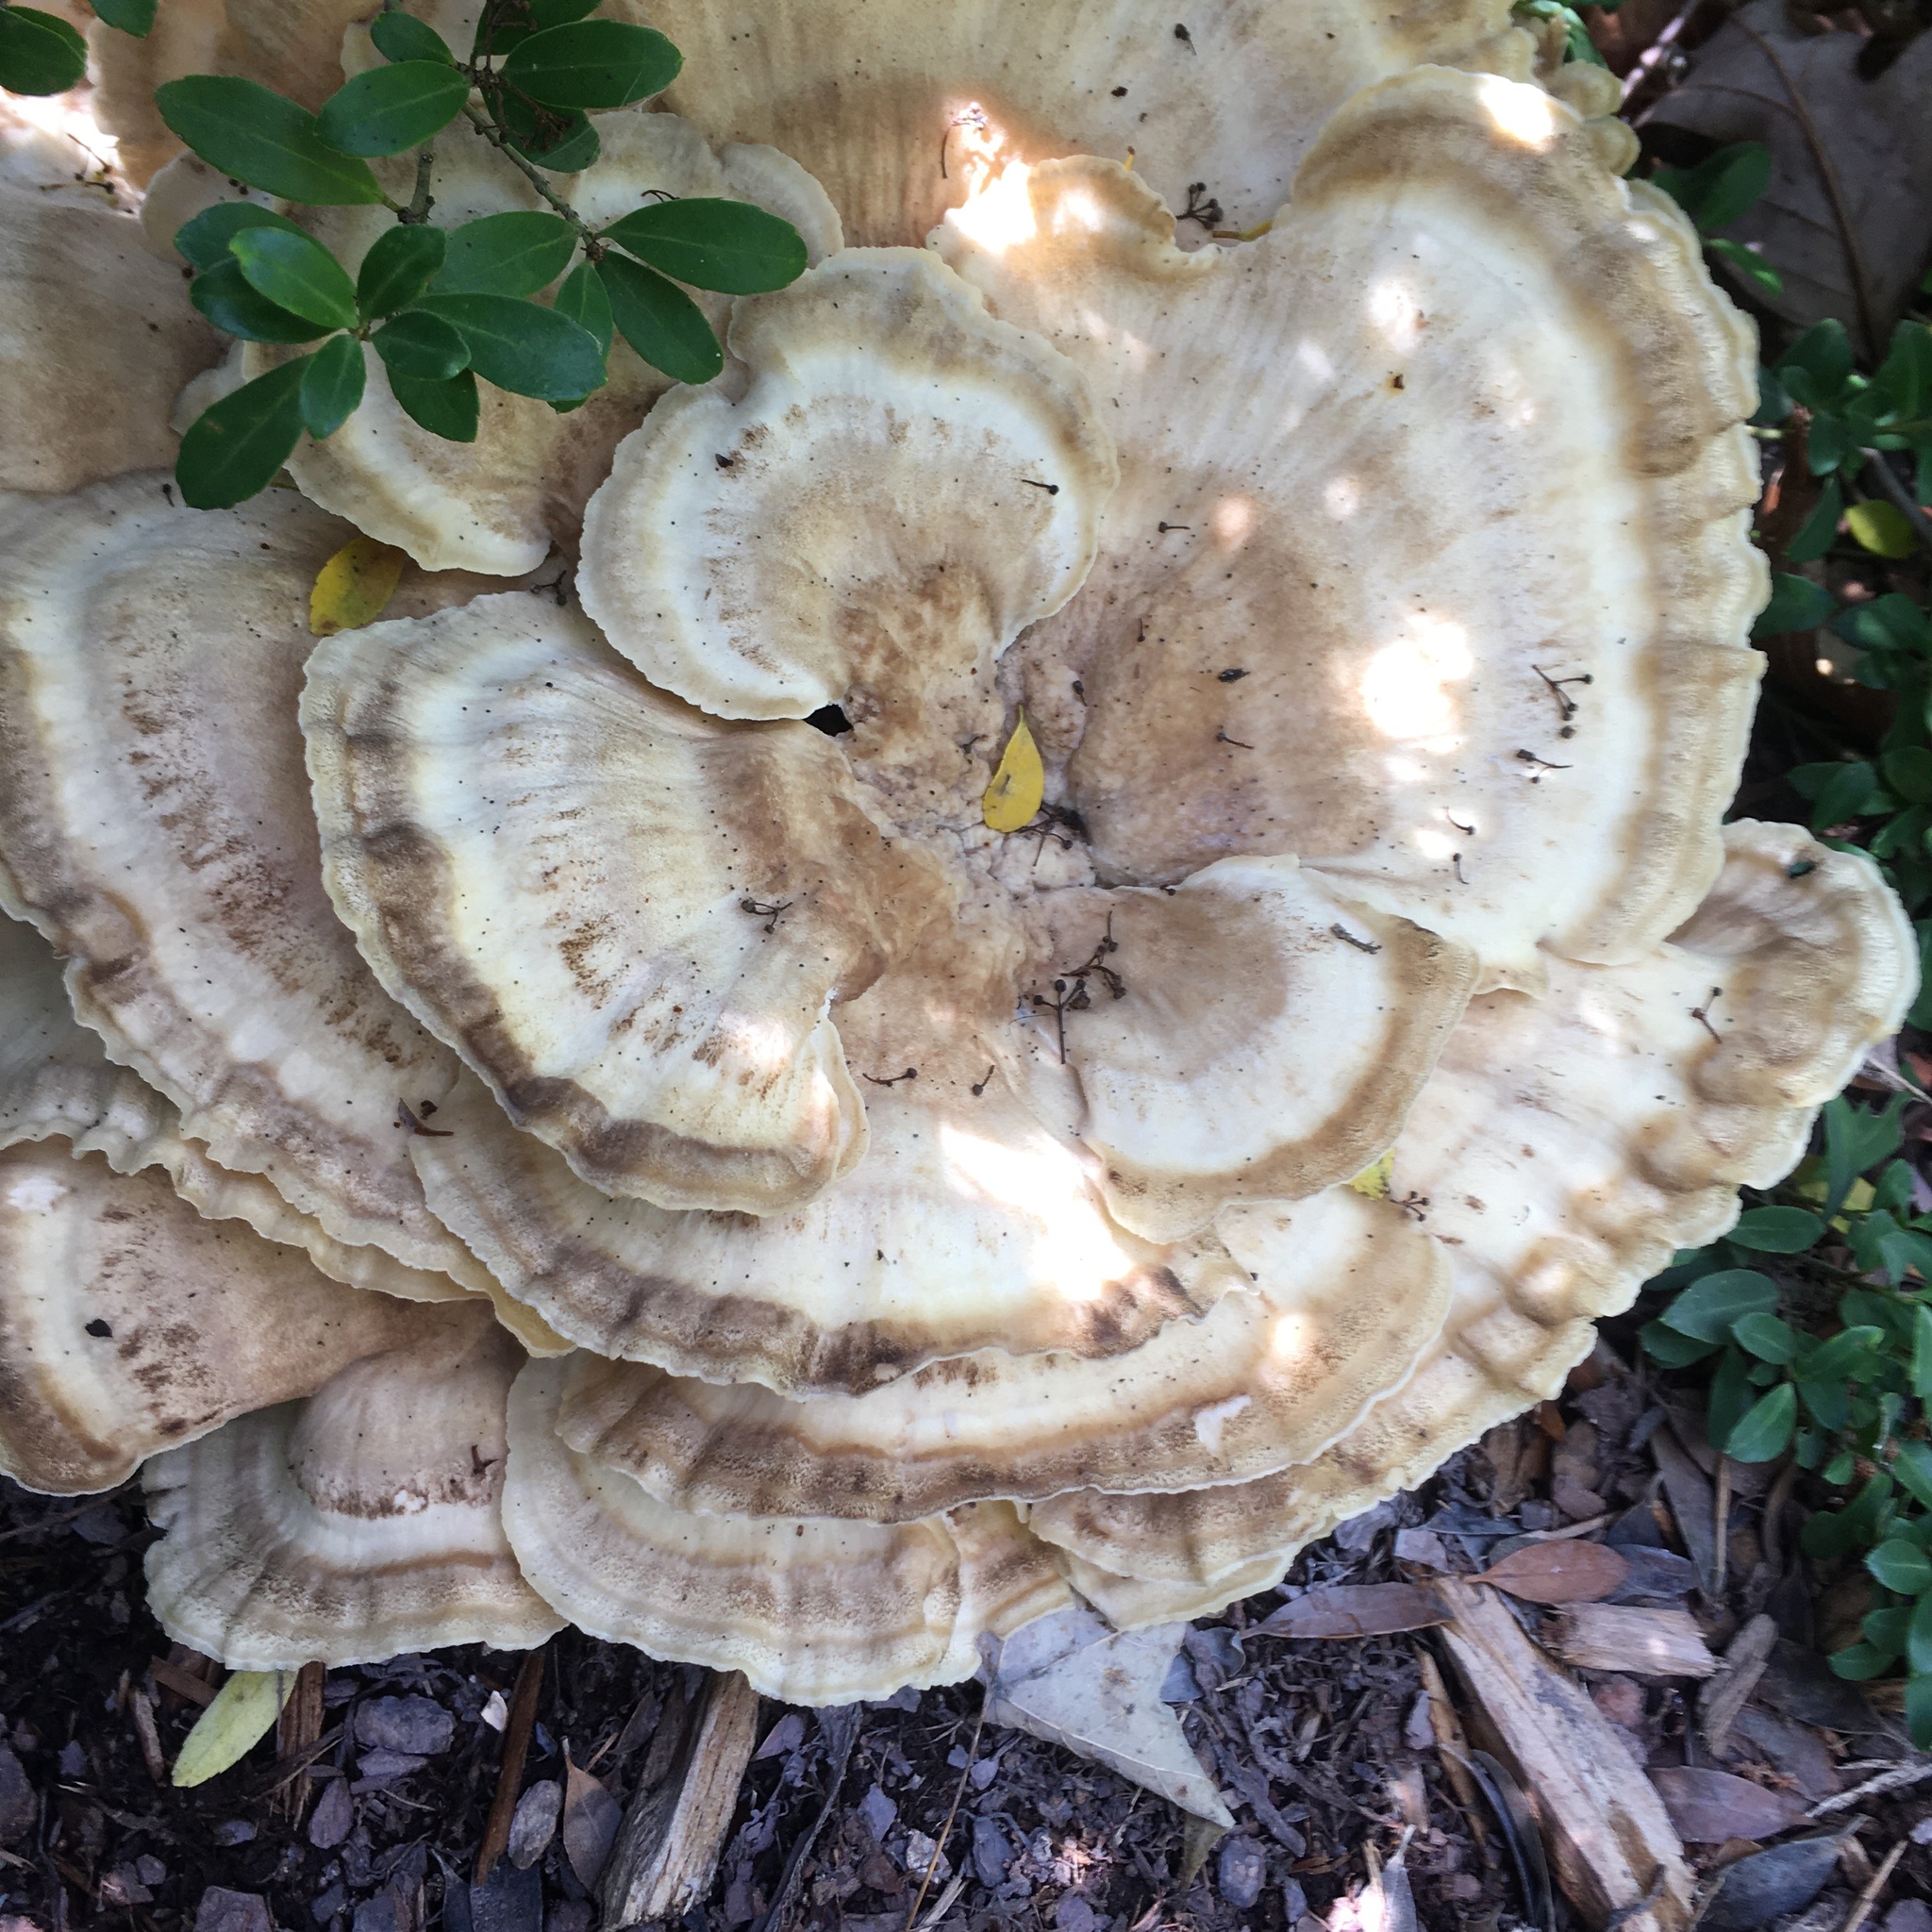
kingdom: Fungi
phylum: Basidiomycota
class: Agaricomycetes
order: Polyporales
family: Meripilaceae
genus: Meripilus
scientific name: Meripilus sumstinei
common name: Black-staining polypore
